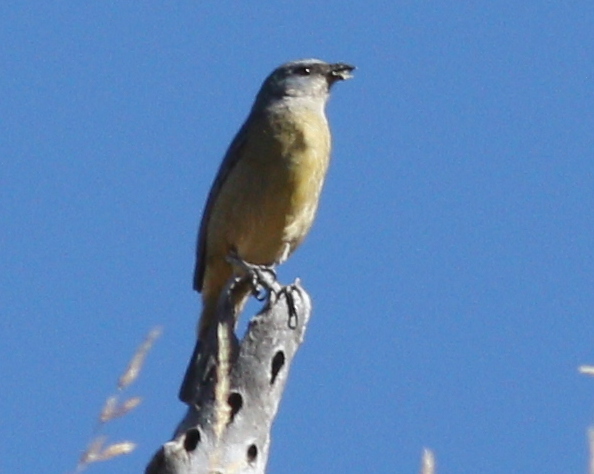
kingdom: Animalia
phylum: Chordata
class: Aves
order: Passeriformes
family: Thraupidae
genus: Rauenia
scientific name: Rauenia bonariensis
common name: Blue-and-yellow tanager
